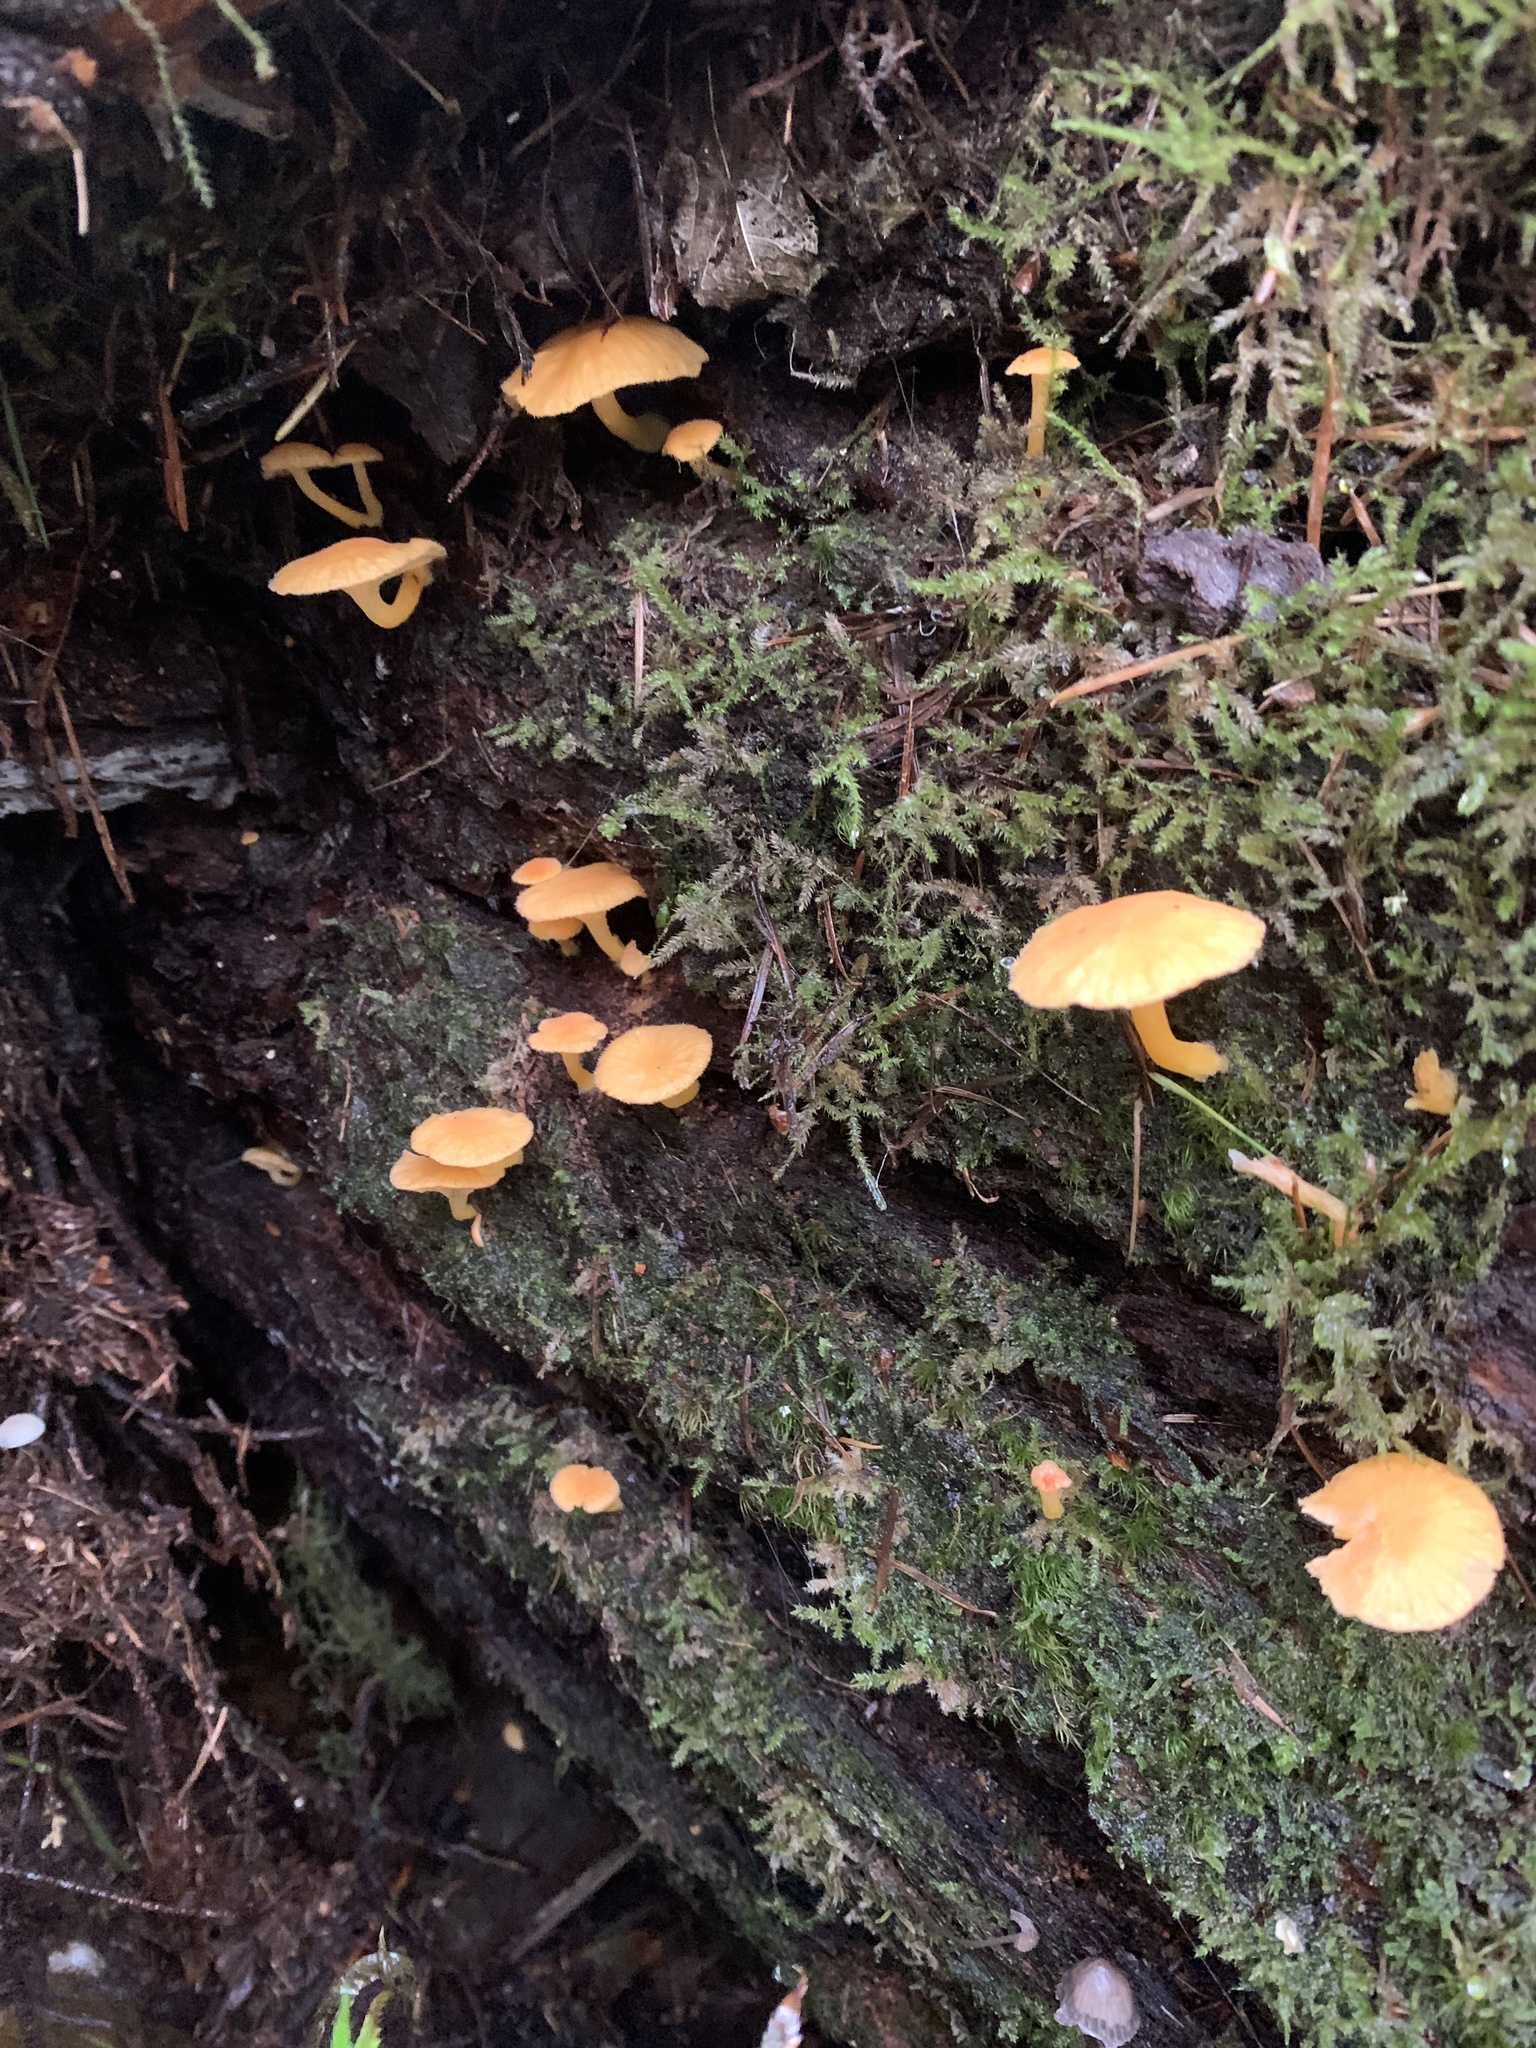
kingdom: Fungi
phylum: Basidiomycota
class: Agaricomycetes
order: Agaricales
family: Hygrophoraceae
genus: Chrysomphalina
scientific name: Chrysomphalina aurantiaca
